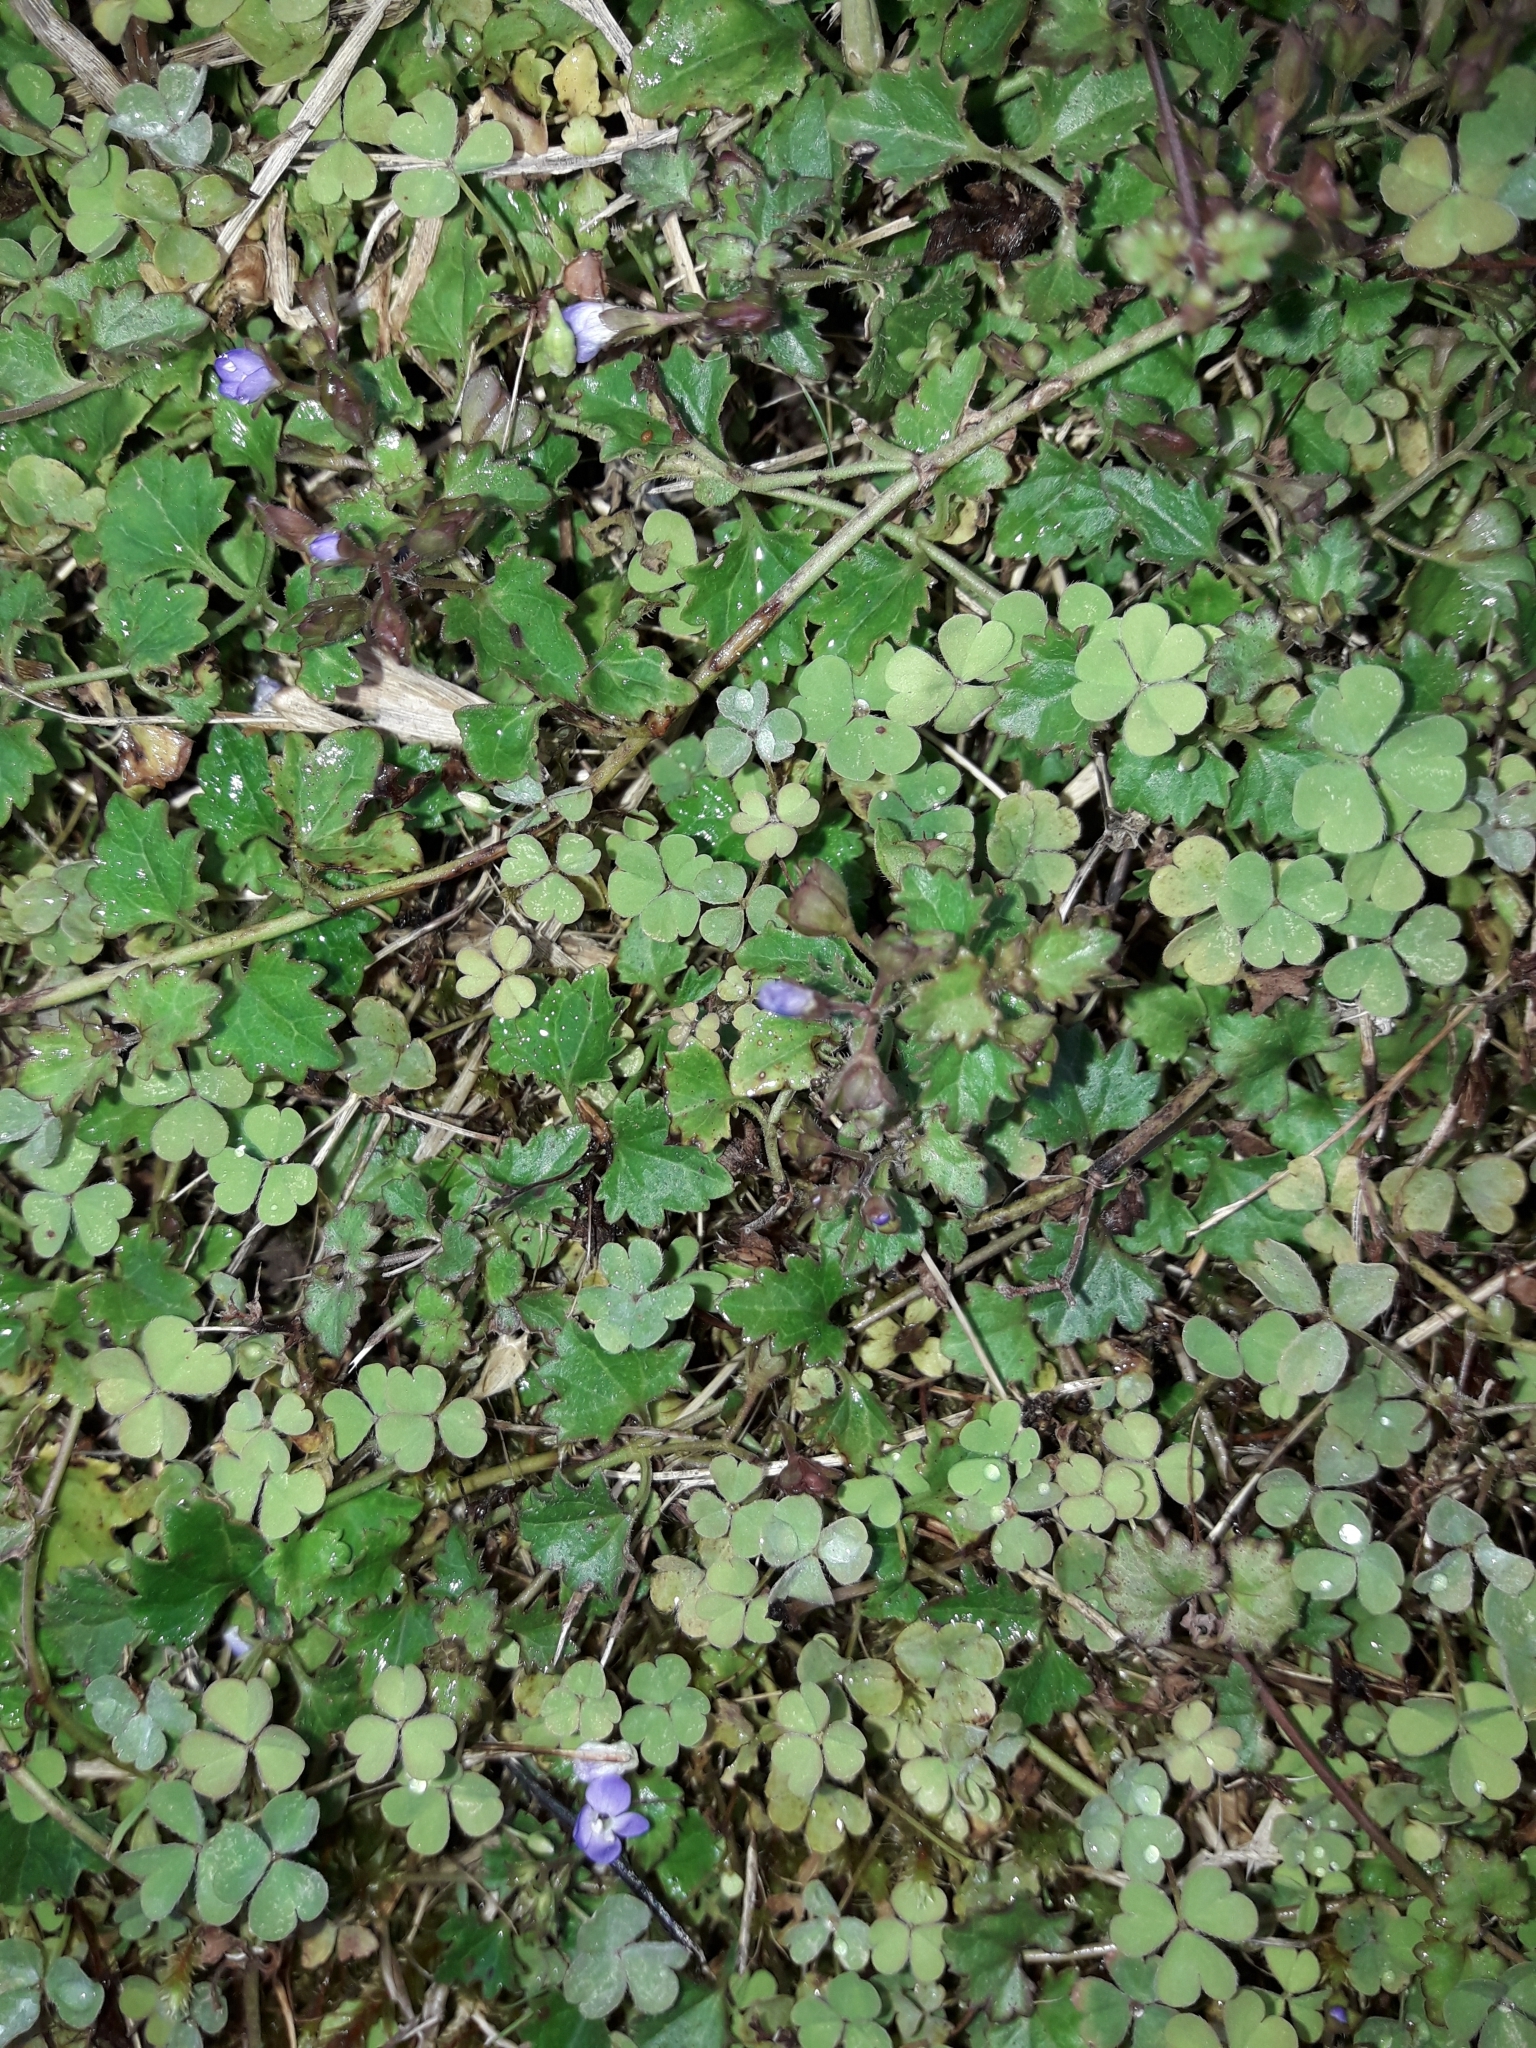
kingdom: Plantae
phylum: Tracheophyta
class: Magnoliopsida
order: Lamiales
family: Plantaginaceae
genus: Veronica
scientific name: Veronica plebeia
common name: Speedwell
